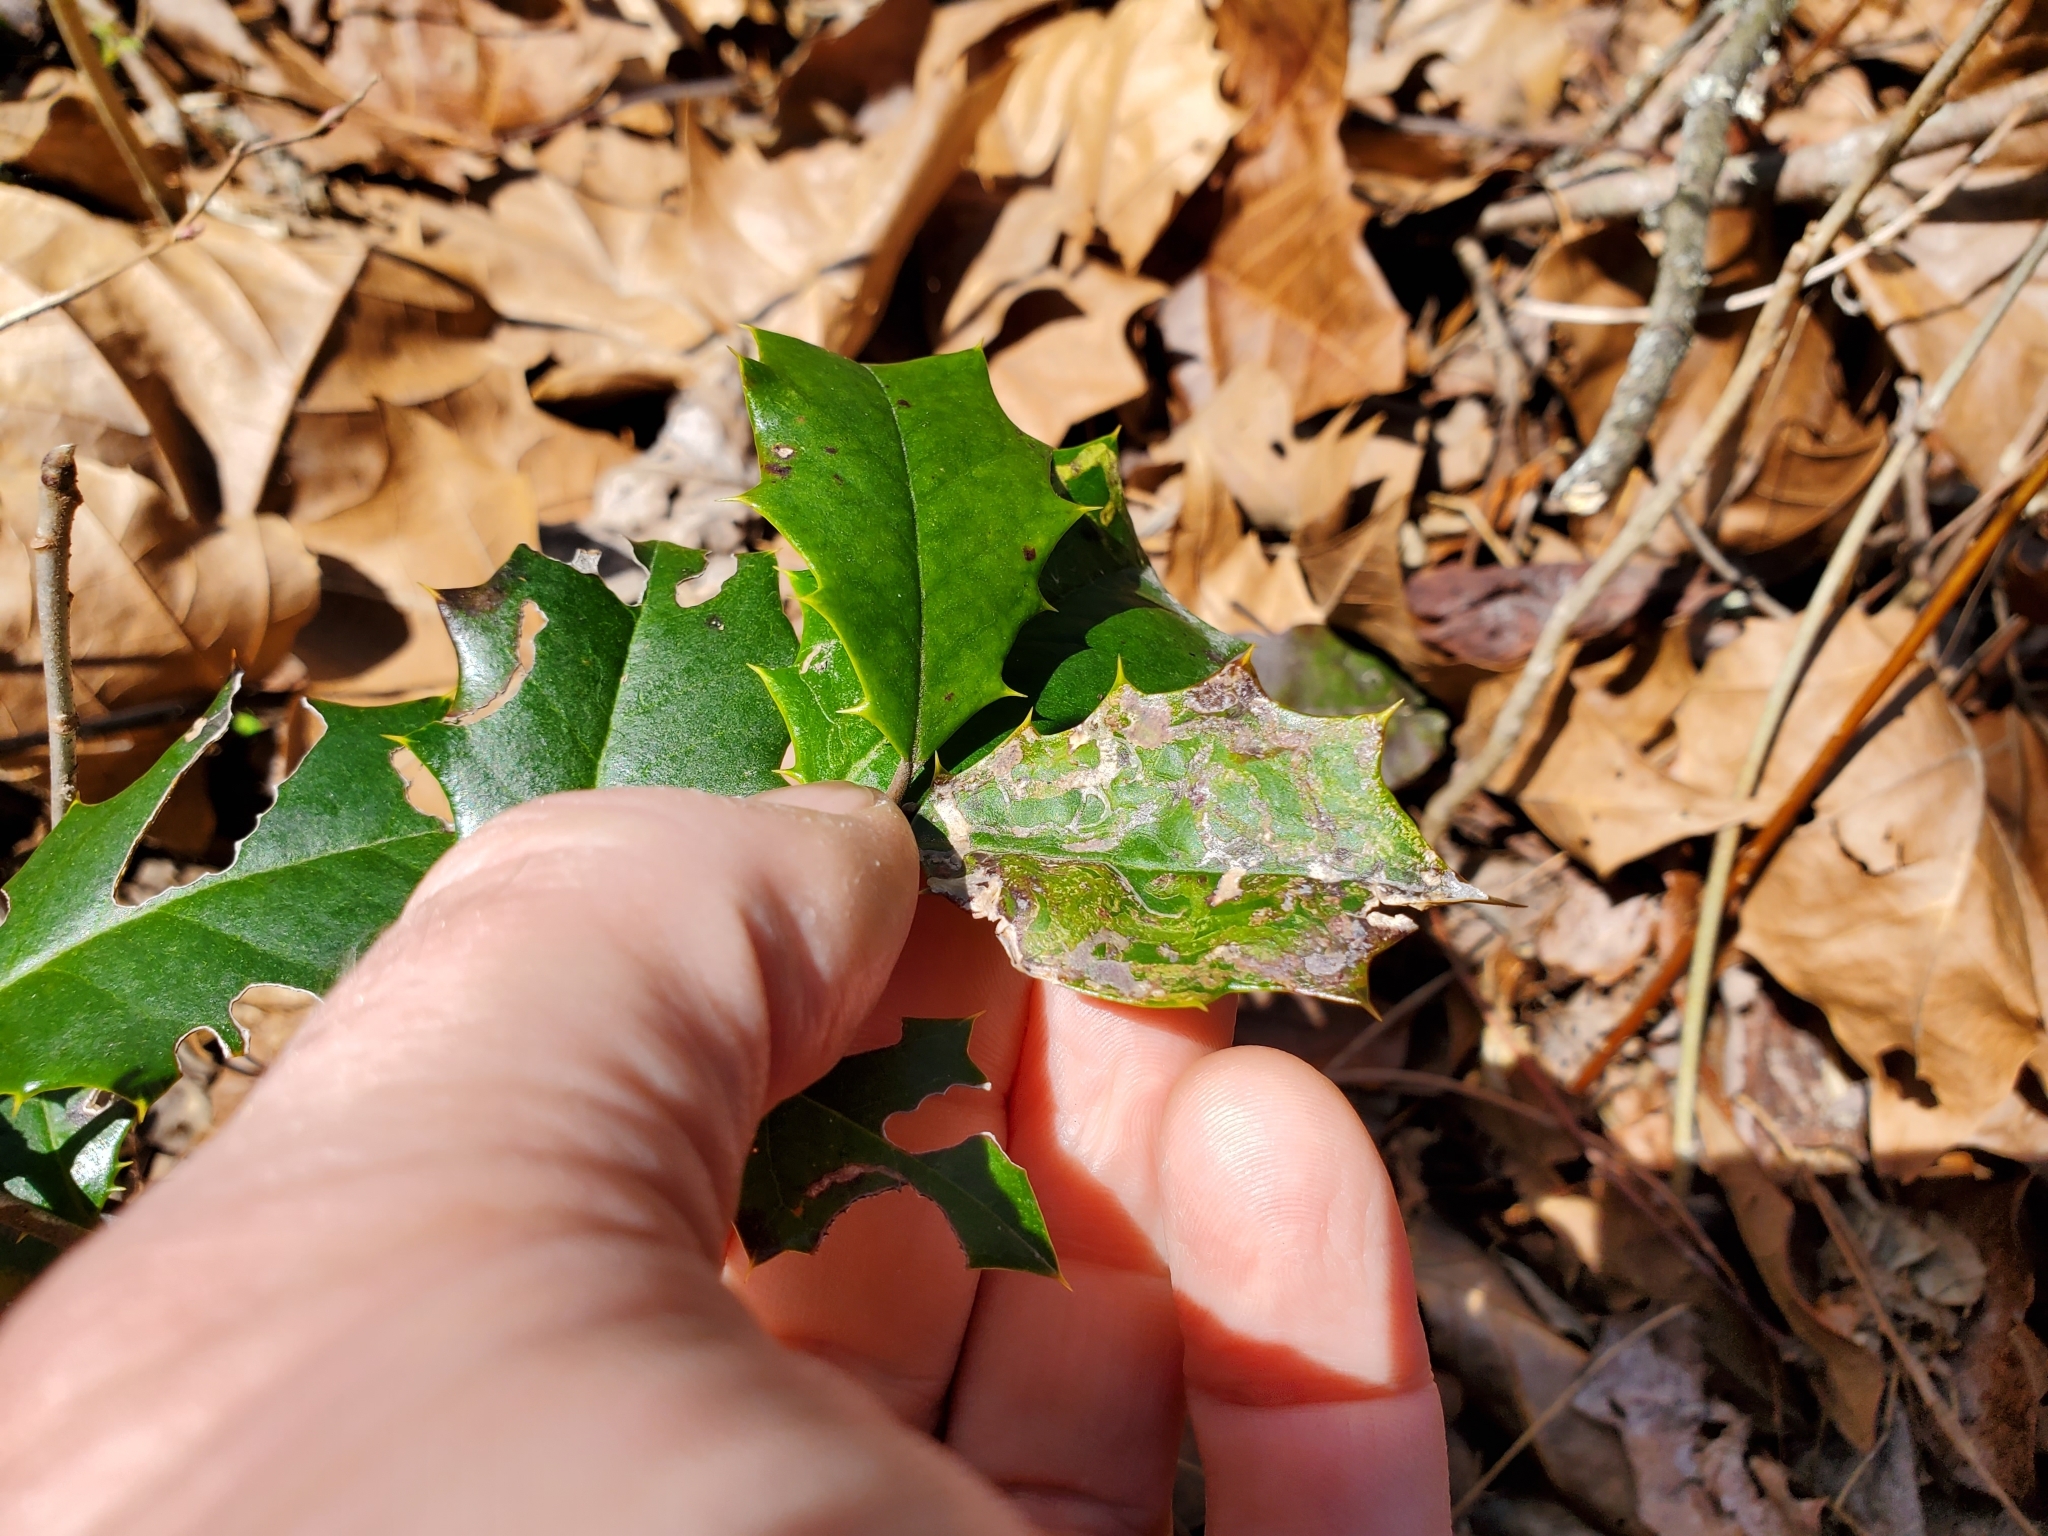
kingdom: Animalia
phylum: Arthropoda
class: Insecta
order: Diptera
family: Agromyzidae
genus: Phytomyza
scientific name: Phytomyza opacae
